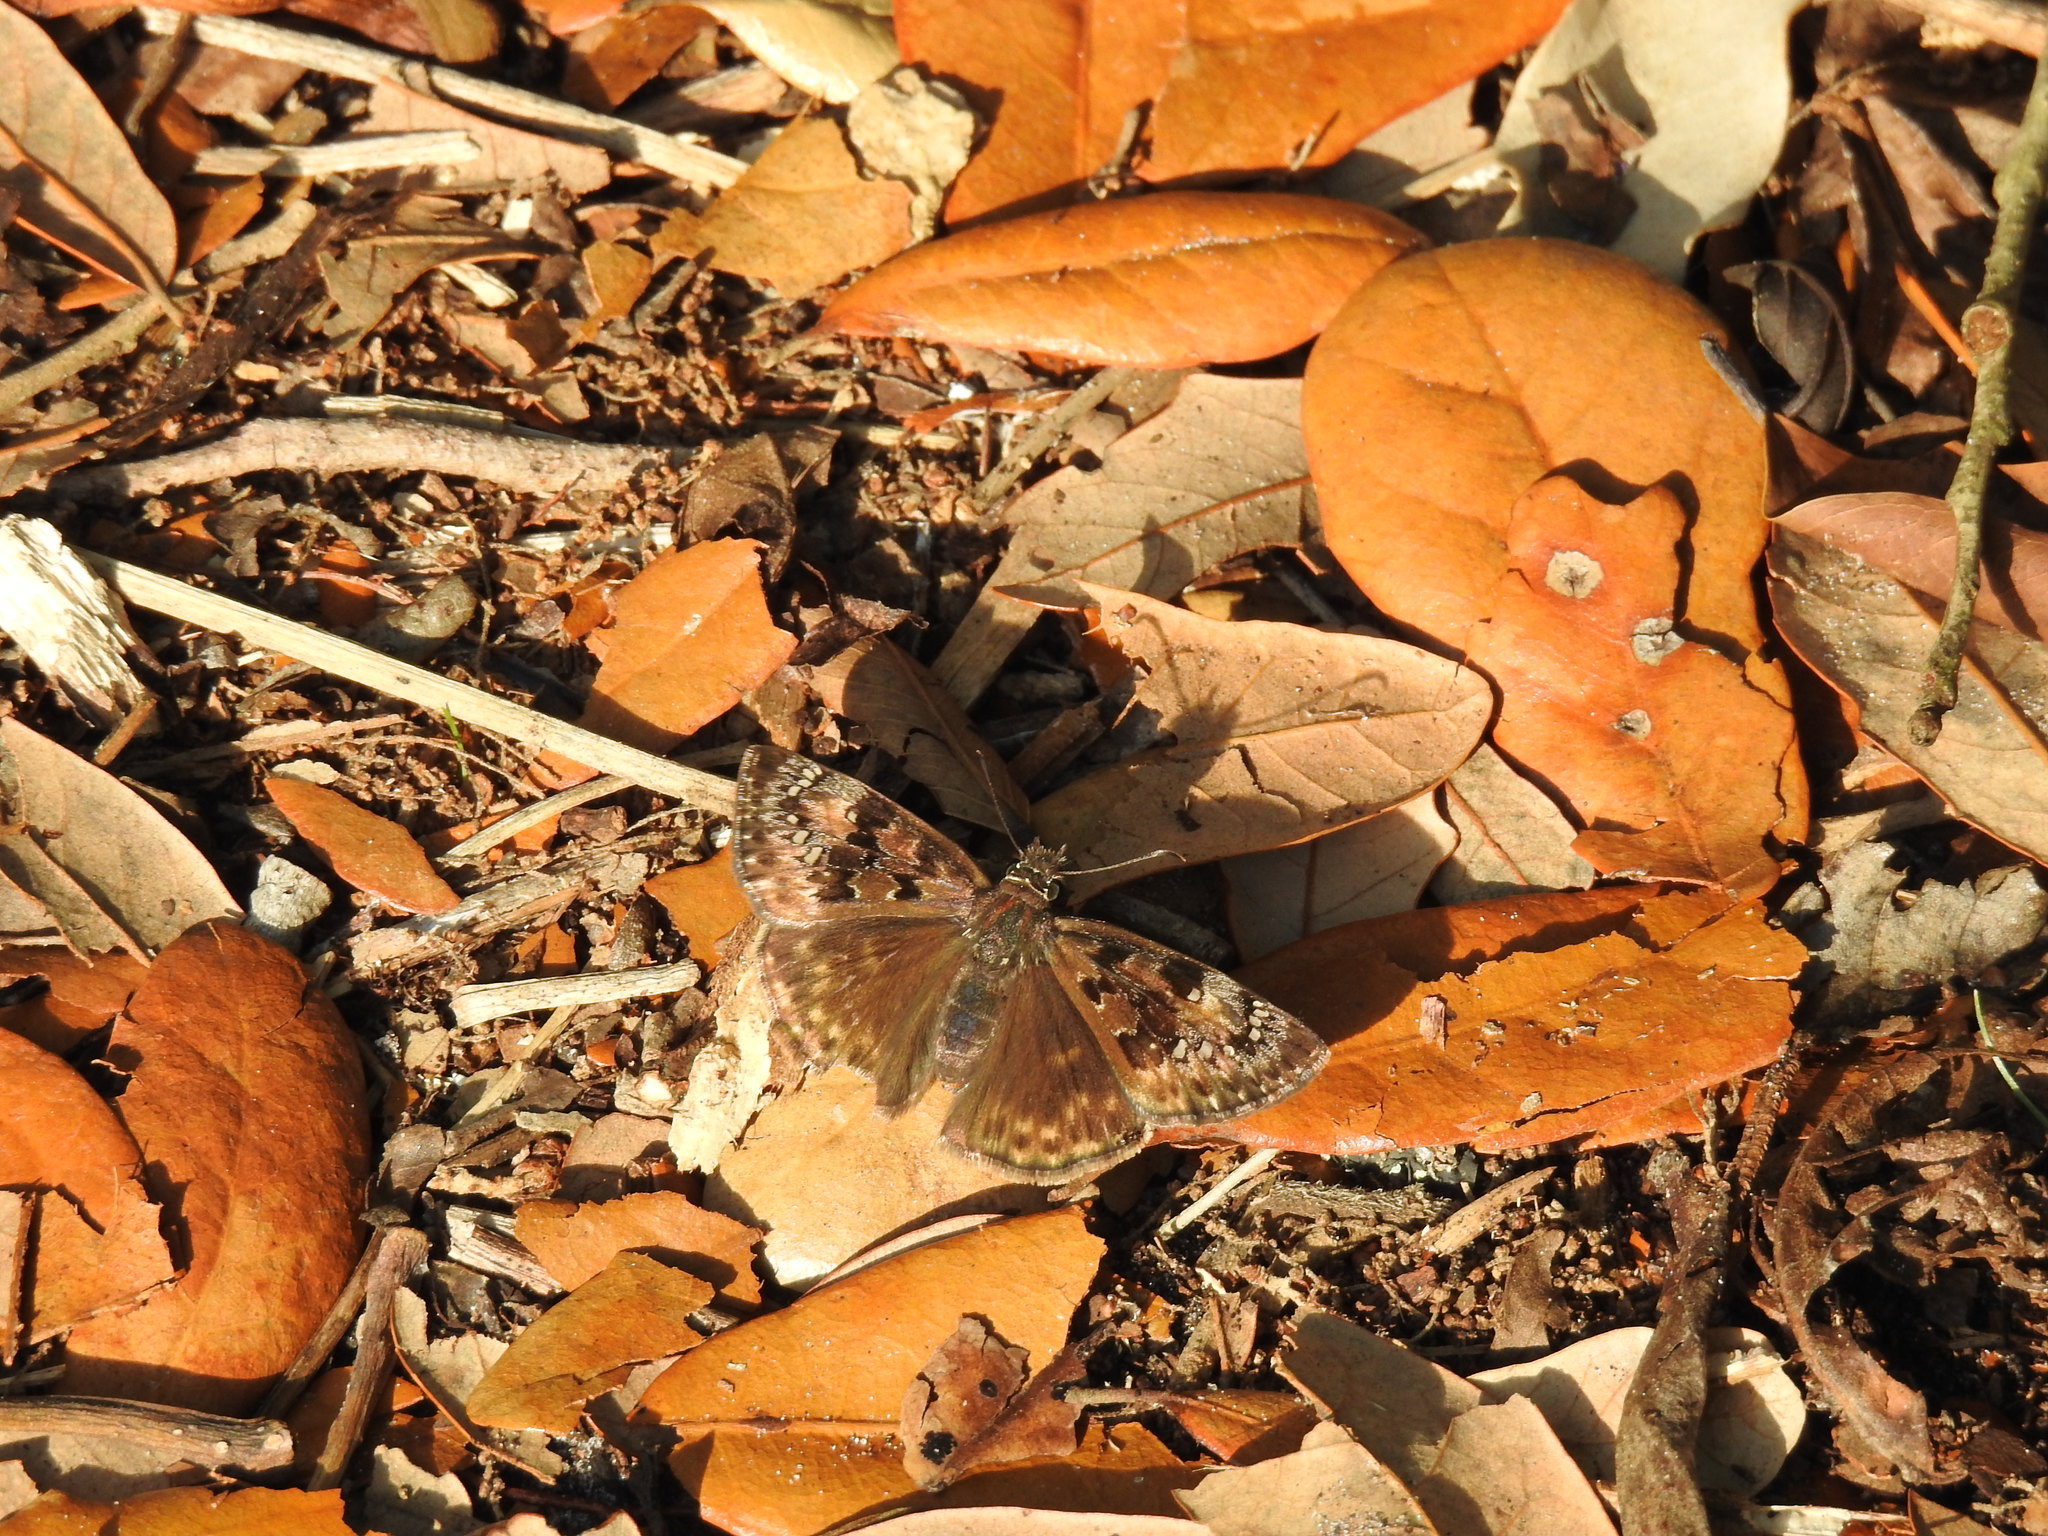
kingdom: Animalia
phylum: Arthropoda
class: Insecta
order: Lepidoptera
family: Hesperiidae
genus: Erynnis
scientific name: Erynnis horatius
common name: Horace's duskywing
